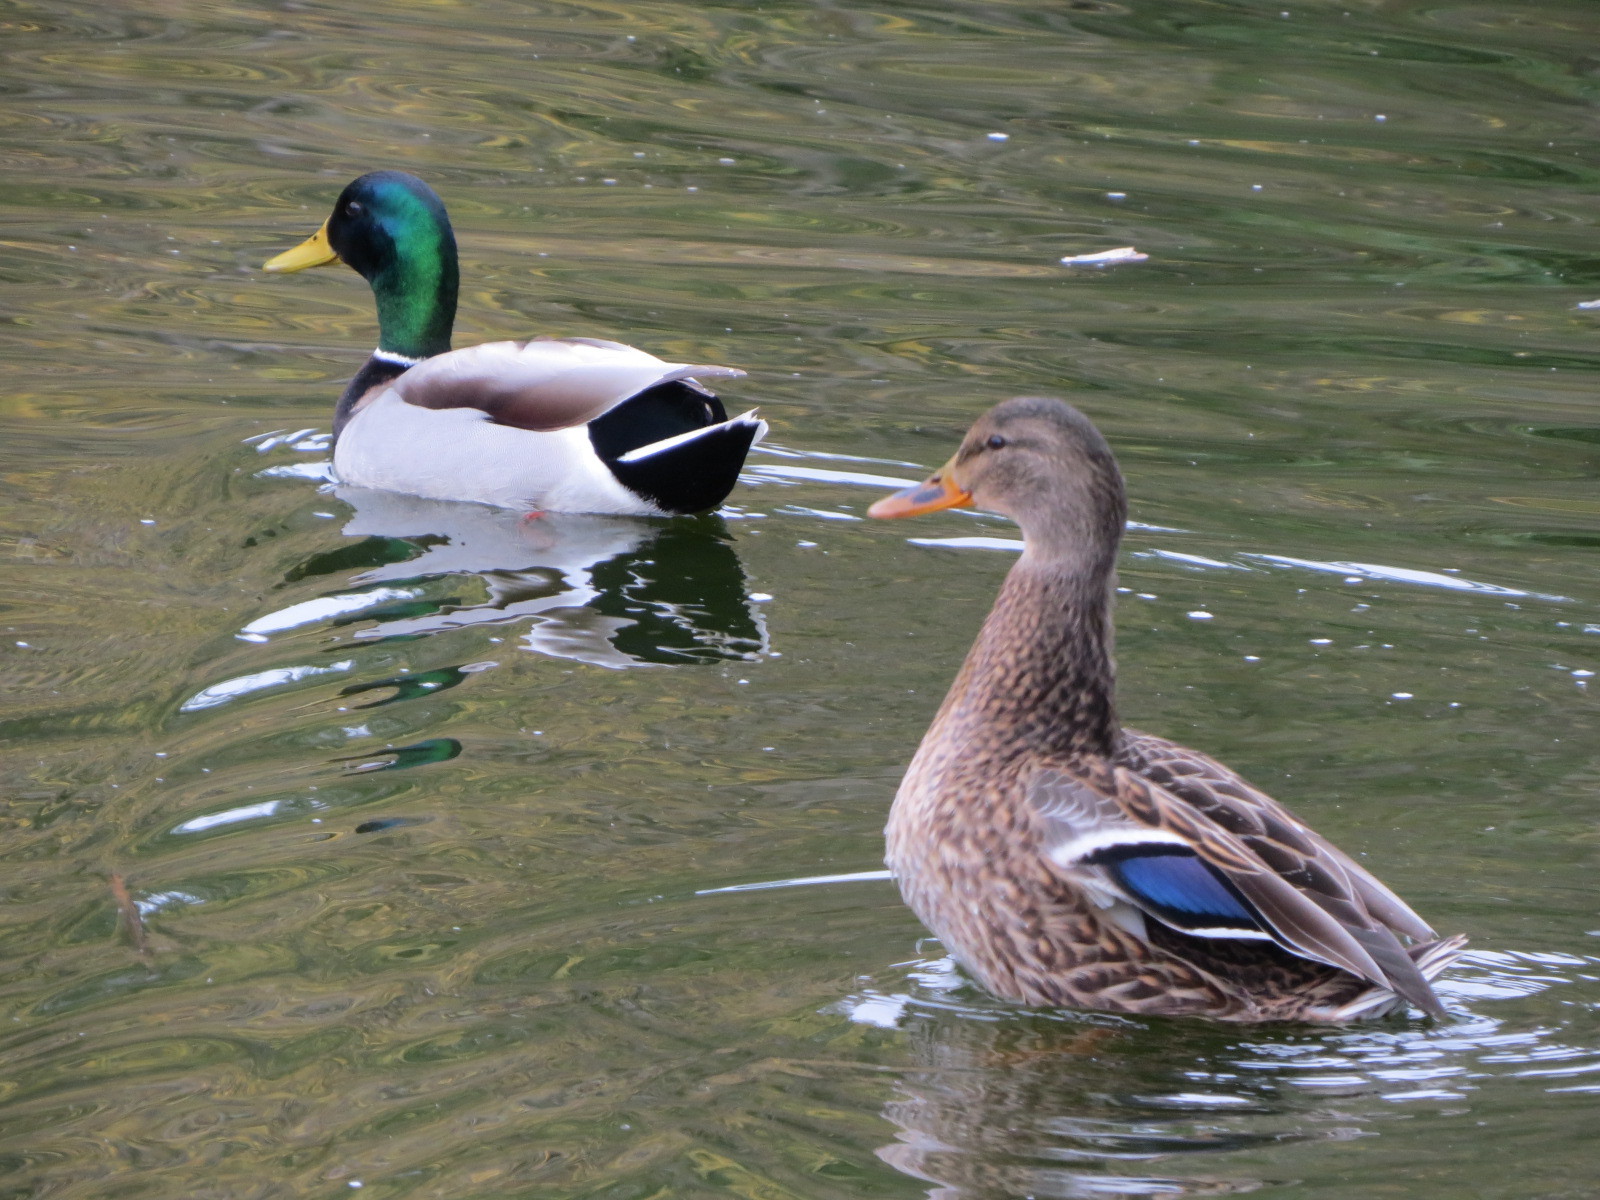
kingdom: Animalia
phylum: Chordata
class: Aves
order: Anseriformes
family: Anatidae
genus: Anas
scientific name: Anas platyrhynchos
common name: Mallard
